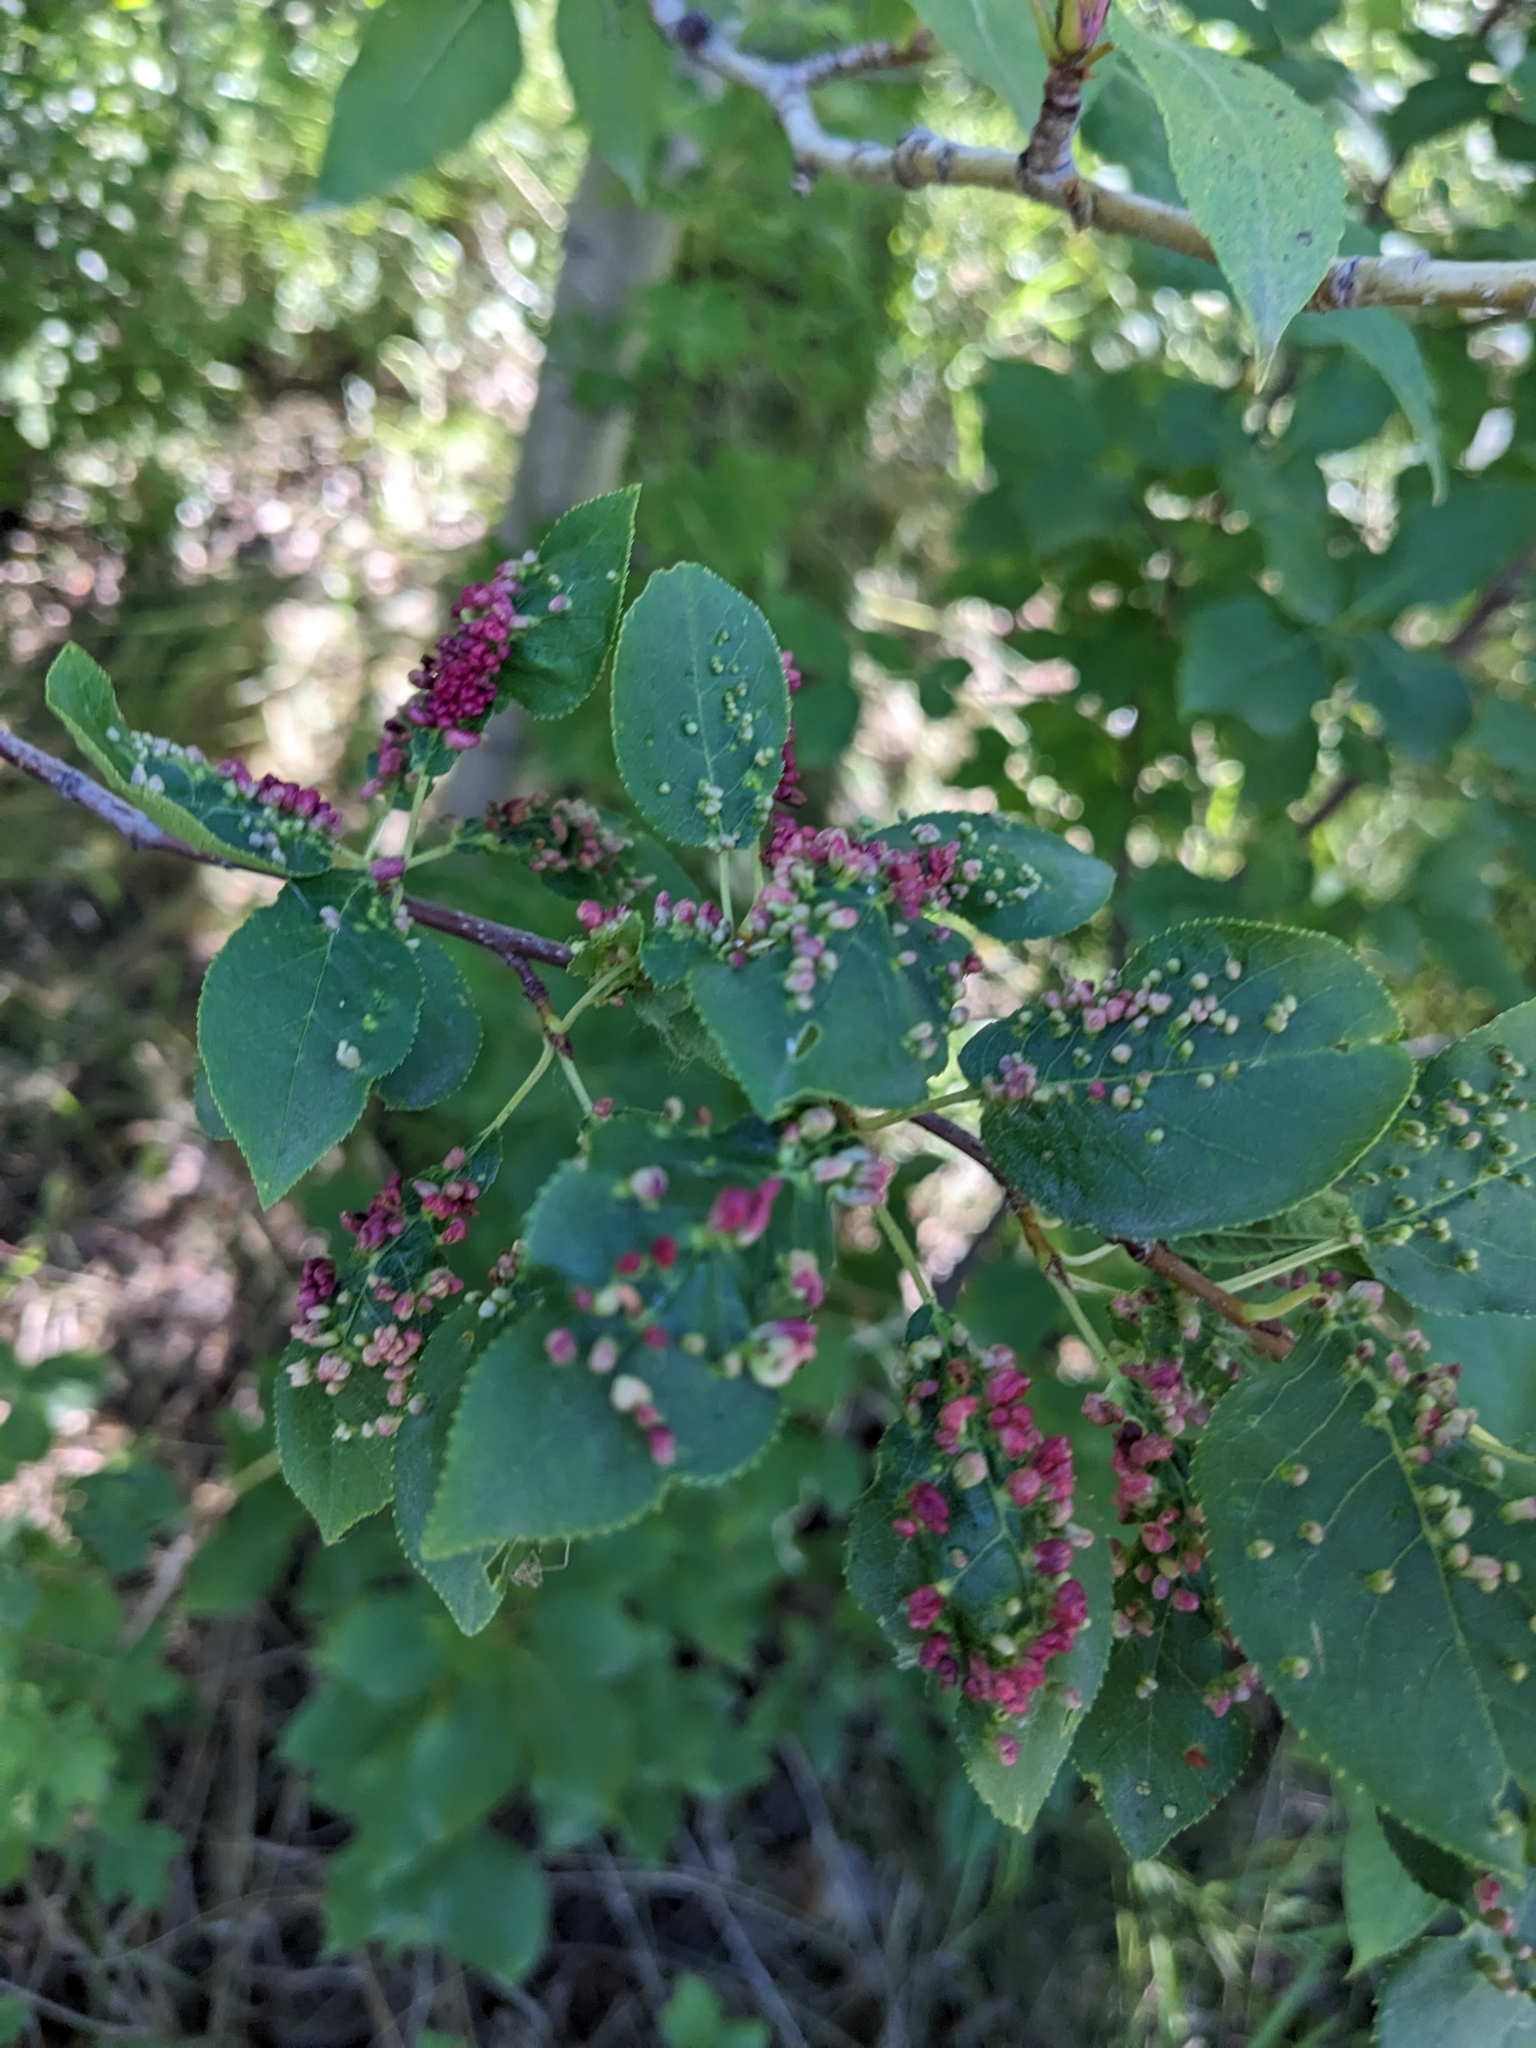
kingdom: Animalia
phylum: Arthropoda
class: Arachnida
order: Trombidiformes
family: Eriophyidae
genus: Eriophyes
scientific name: Eriophyes emarginatae
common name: Plum leaf gall mite
